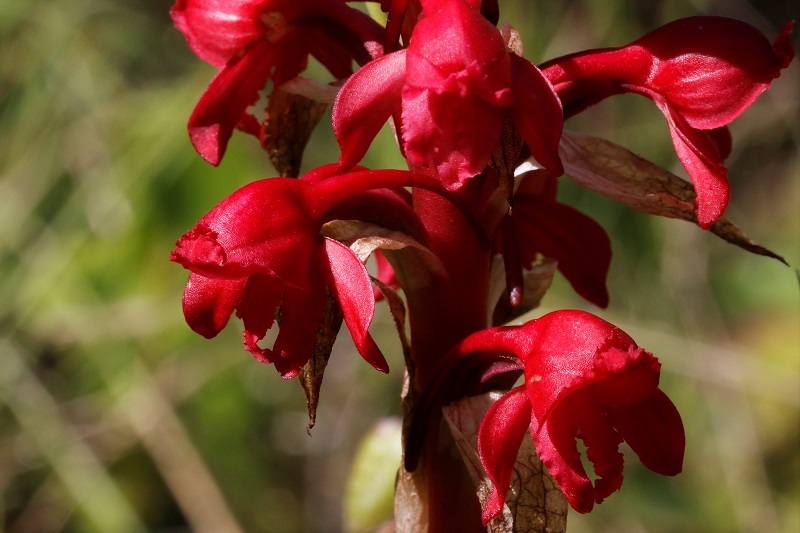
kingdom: Plantae
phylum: Tracheophyta
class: Liliopsida
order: Asparagales
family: Orchidaceae
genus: Satyrium
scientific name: Satyrium princeps
